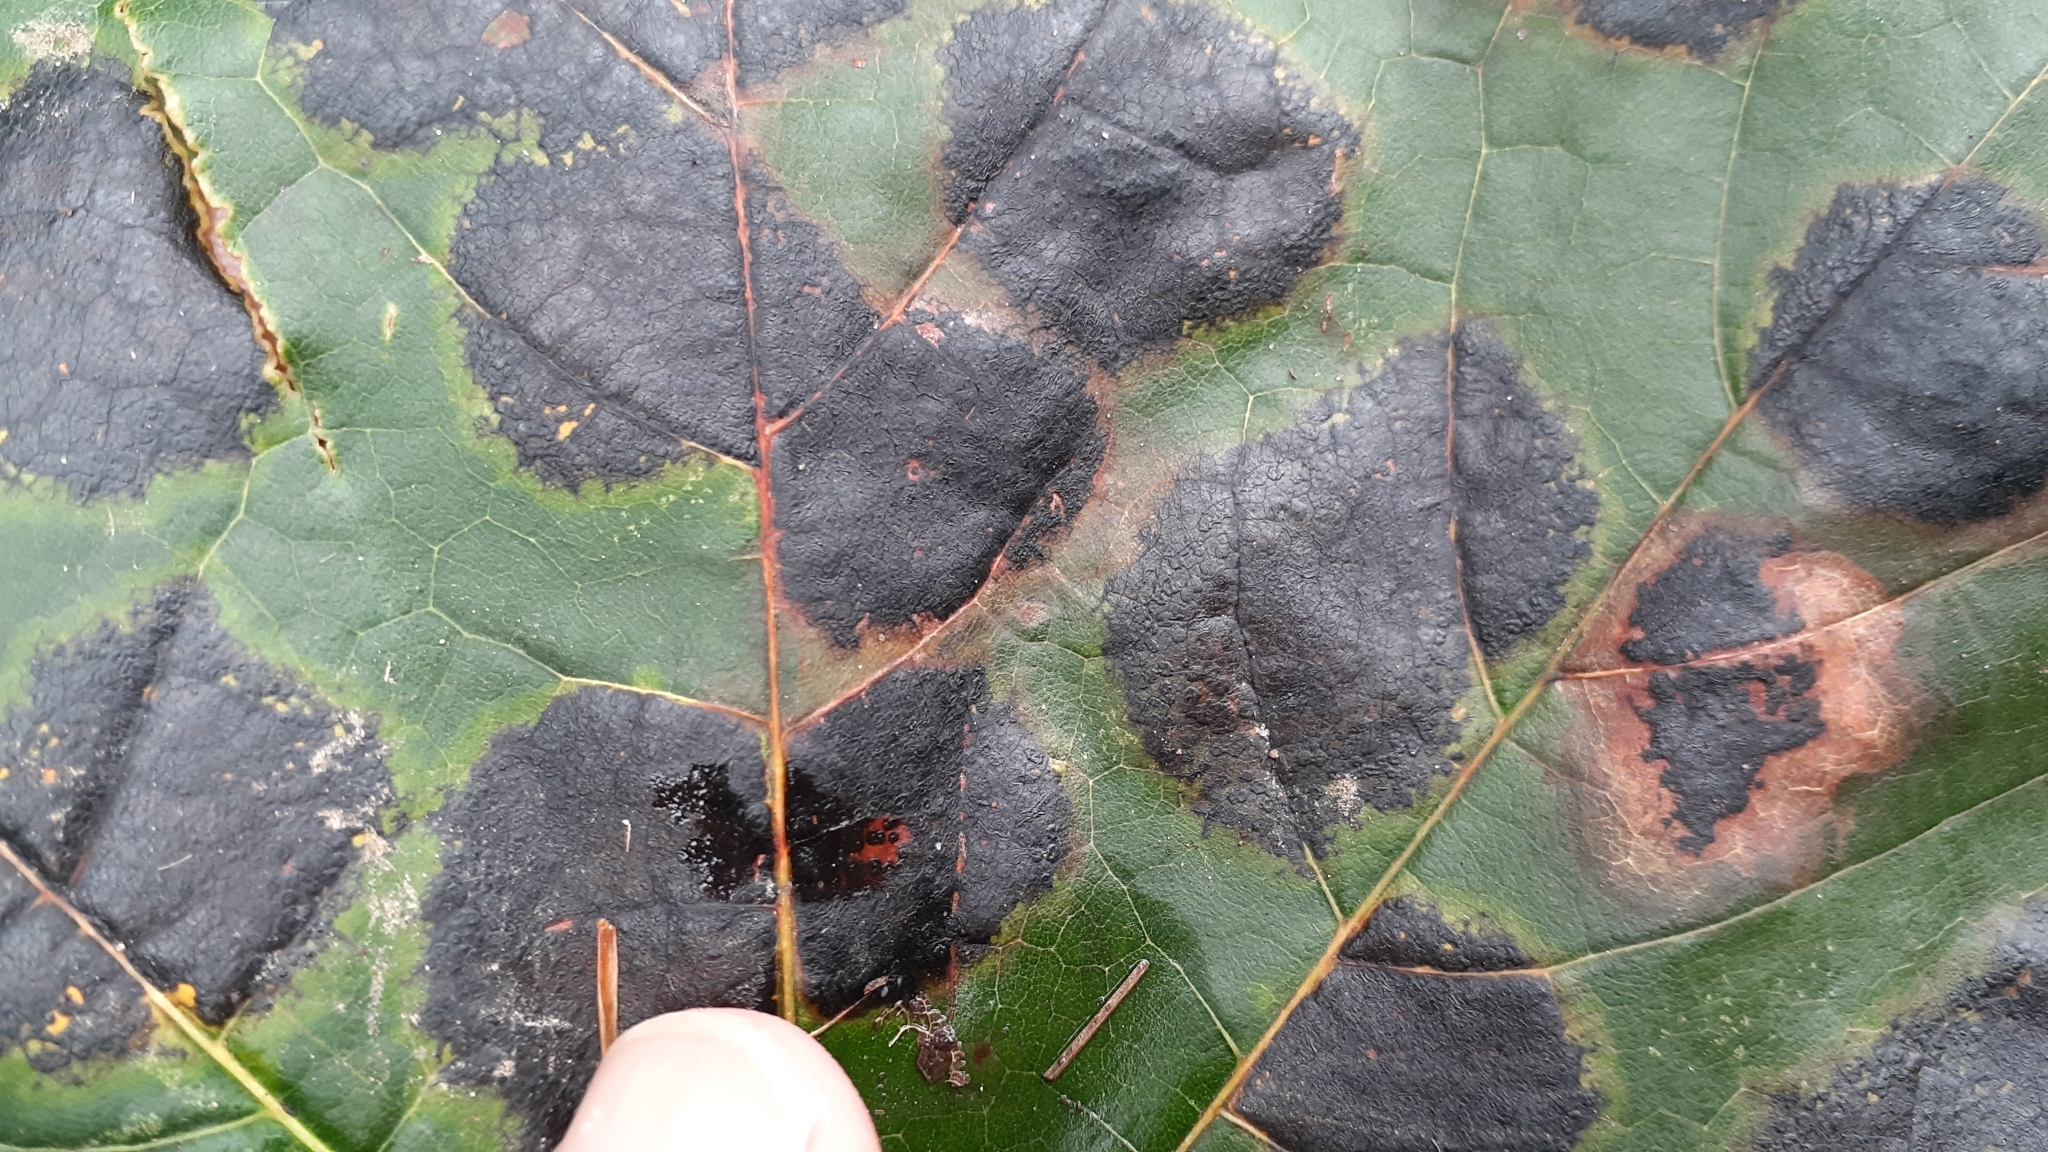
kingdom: Fungi
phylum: Ascomycota
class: Leotiomycetes
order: Rhytismatales
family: Rhytismataceae
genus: Rhytisma
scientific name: Rhytisma acerinum
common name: European tar spot
